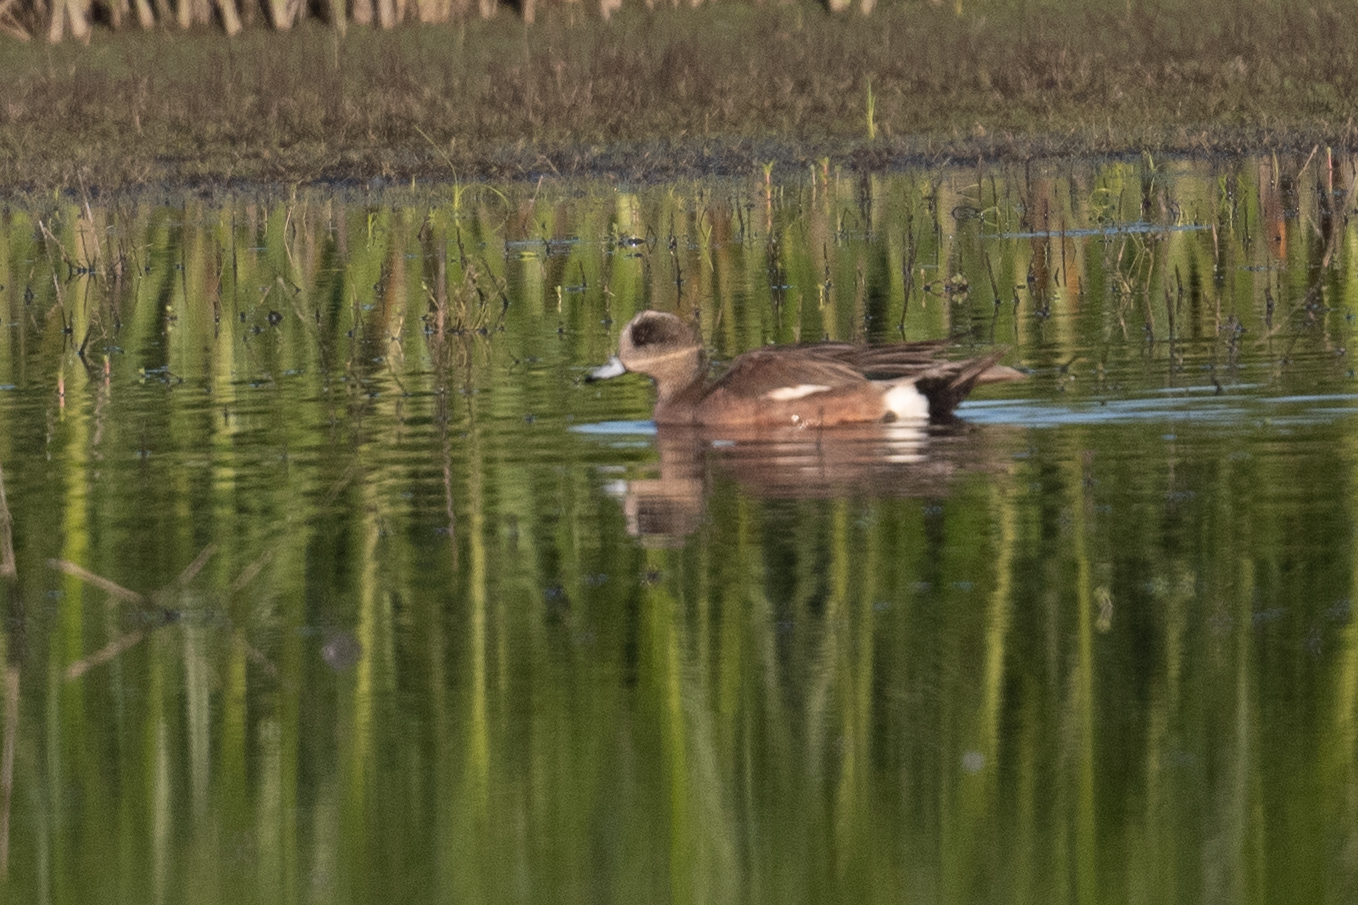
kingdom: Animalia
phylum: Chordata
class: Aves
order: Anseriformes
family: Anatidae
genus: Mareca
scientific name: Mareca americana
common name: American wigeon
